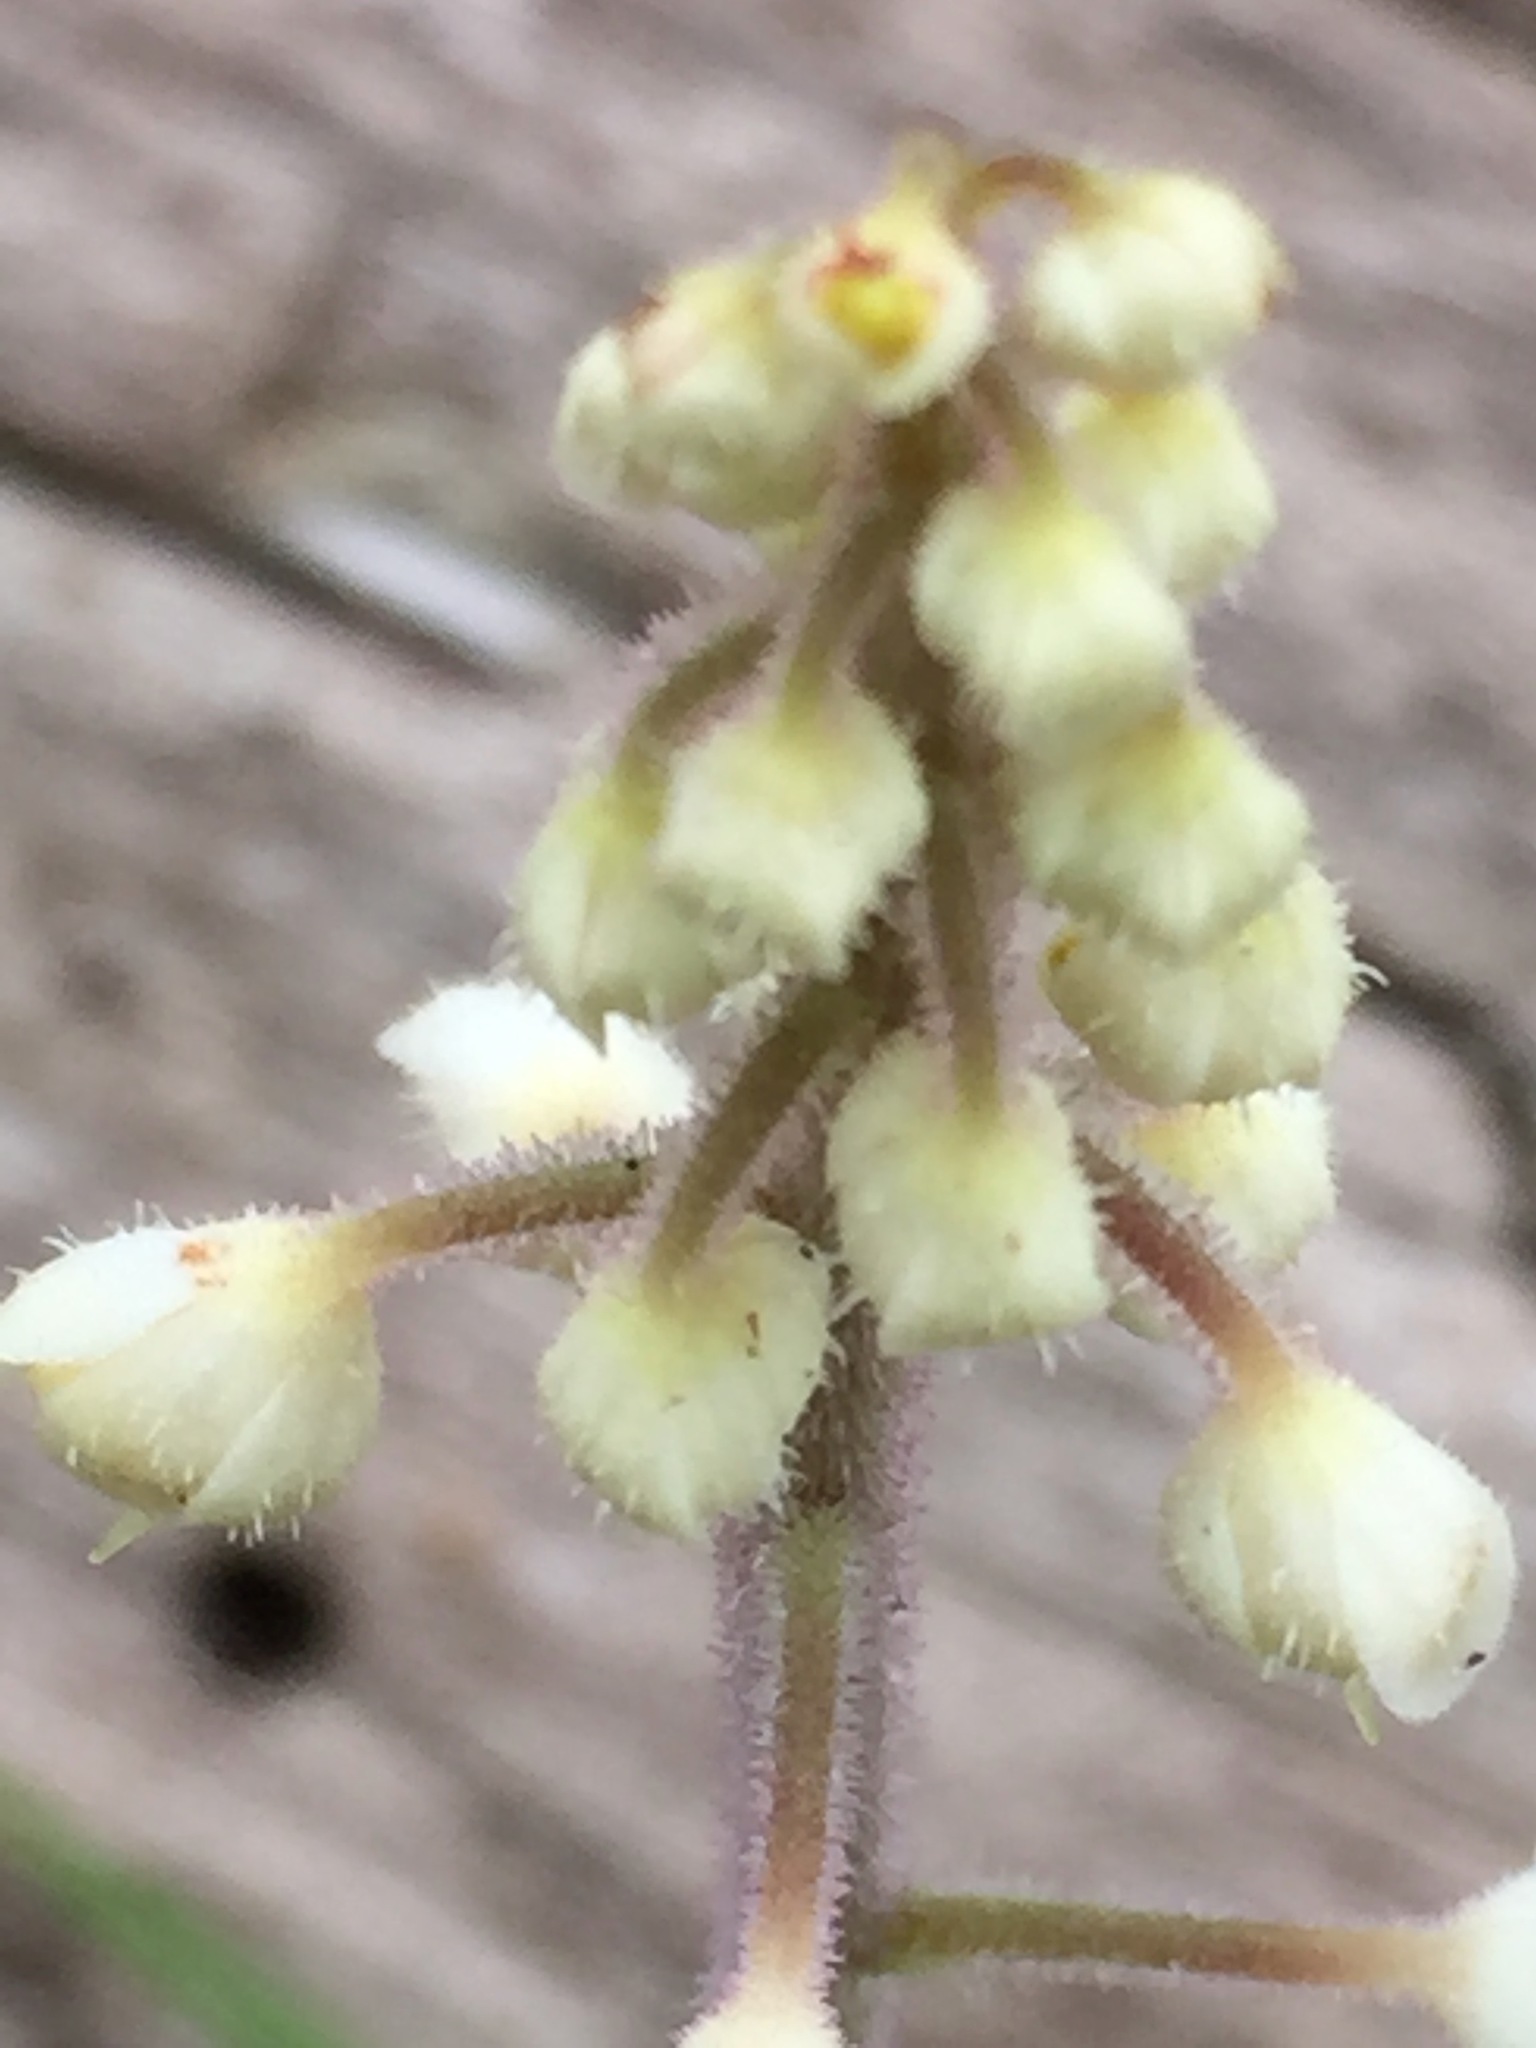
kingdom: Plantae
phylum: Tracheophyta
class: Magnoliopsida
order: Saxifragales
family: Saxifragaceae
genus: Tiarella
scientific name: Tiarella stolonifera
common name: Stoloniferous foamflower
